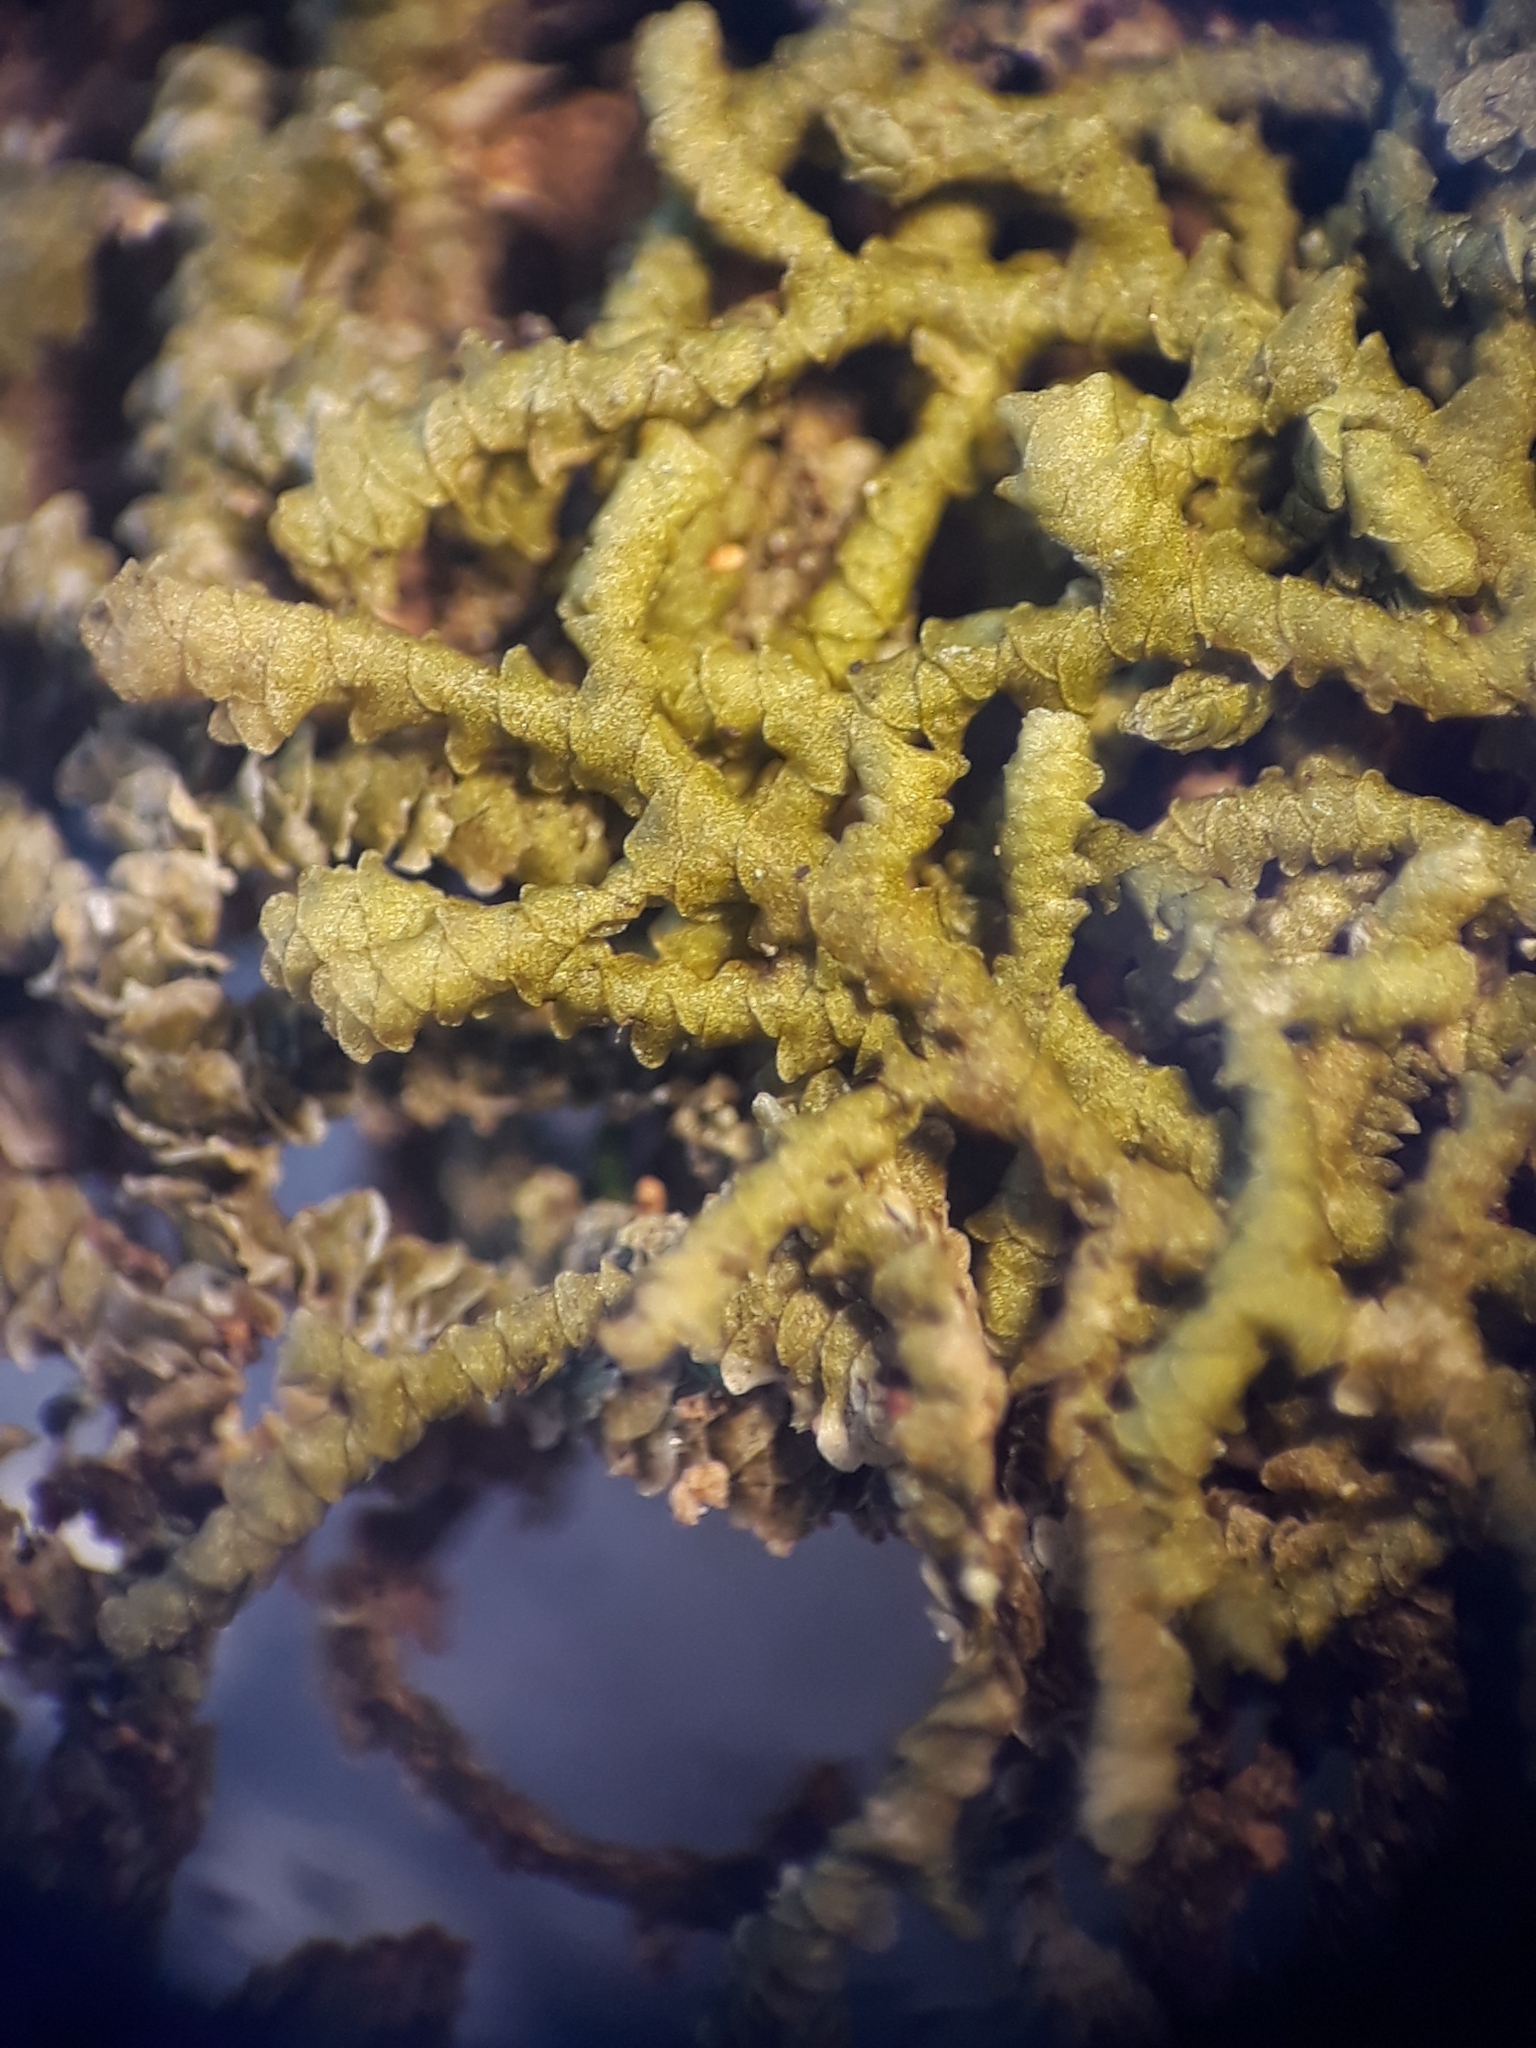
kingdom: Plantae
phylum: Marchantiophyta
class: Jungermanniopsida
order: Porellales
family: Frullaniaceae
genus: Frullania
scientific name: Frullania pycnantha
